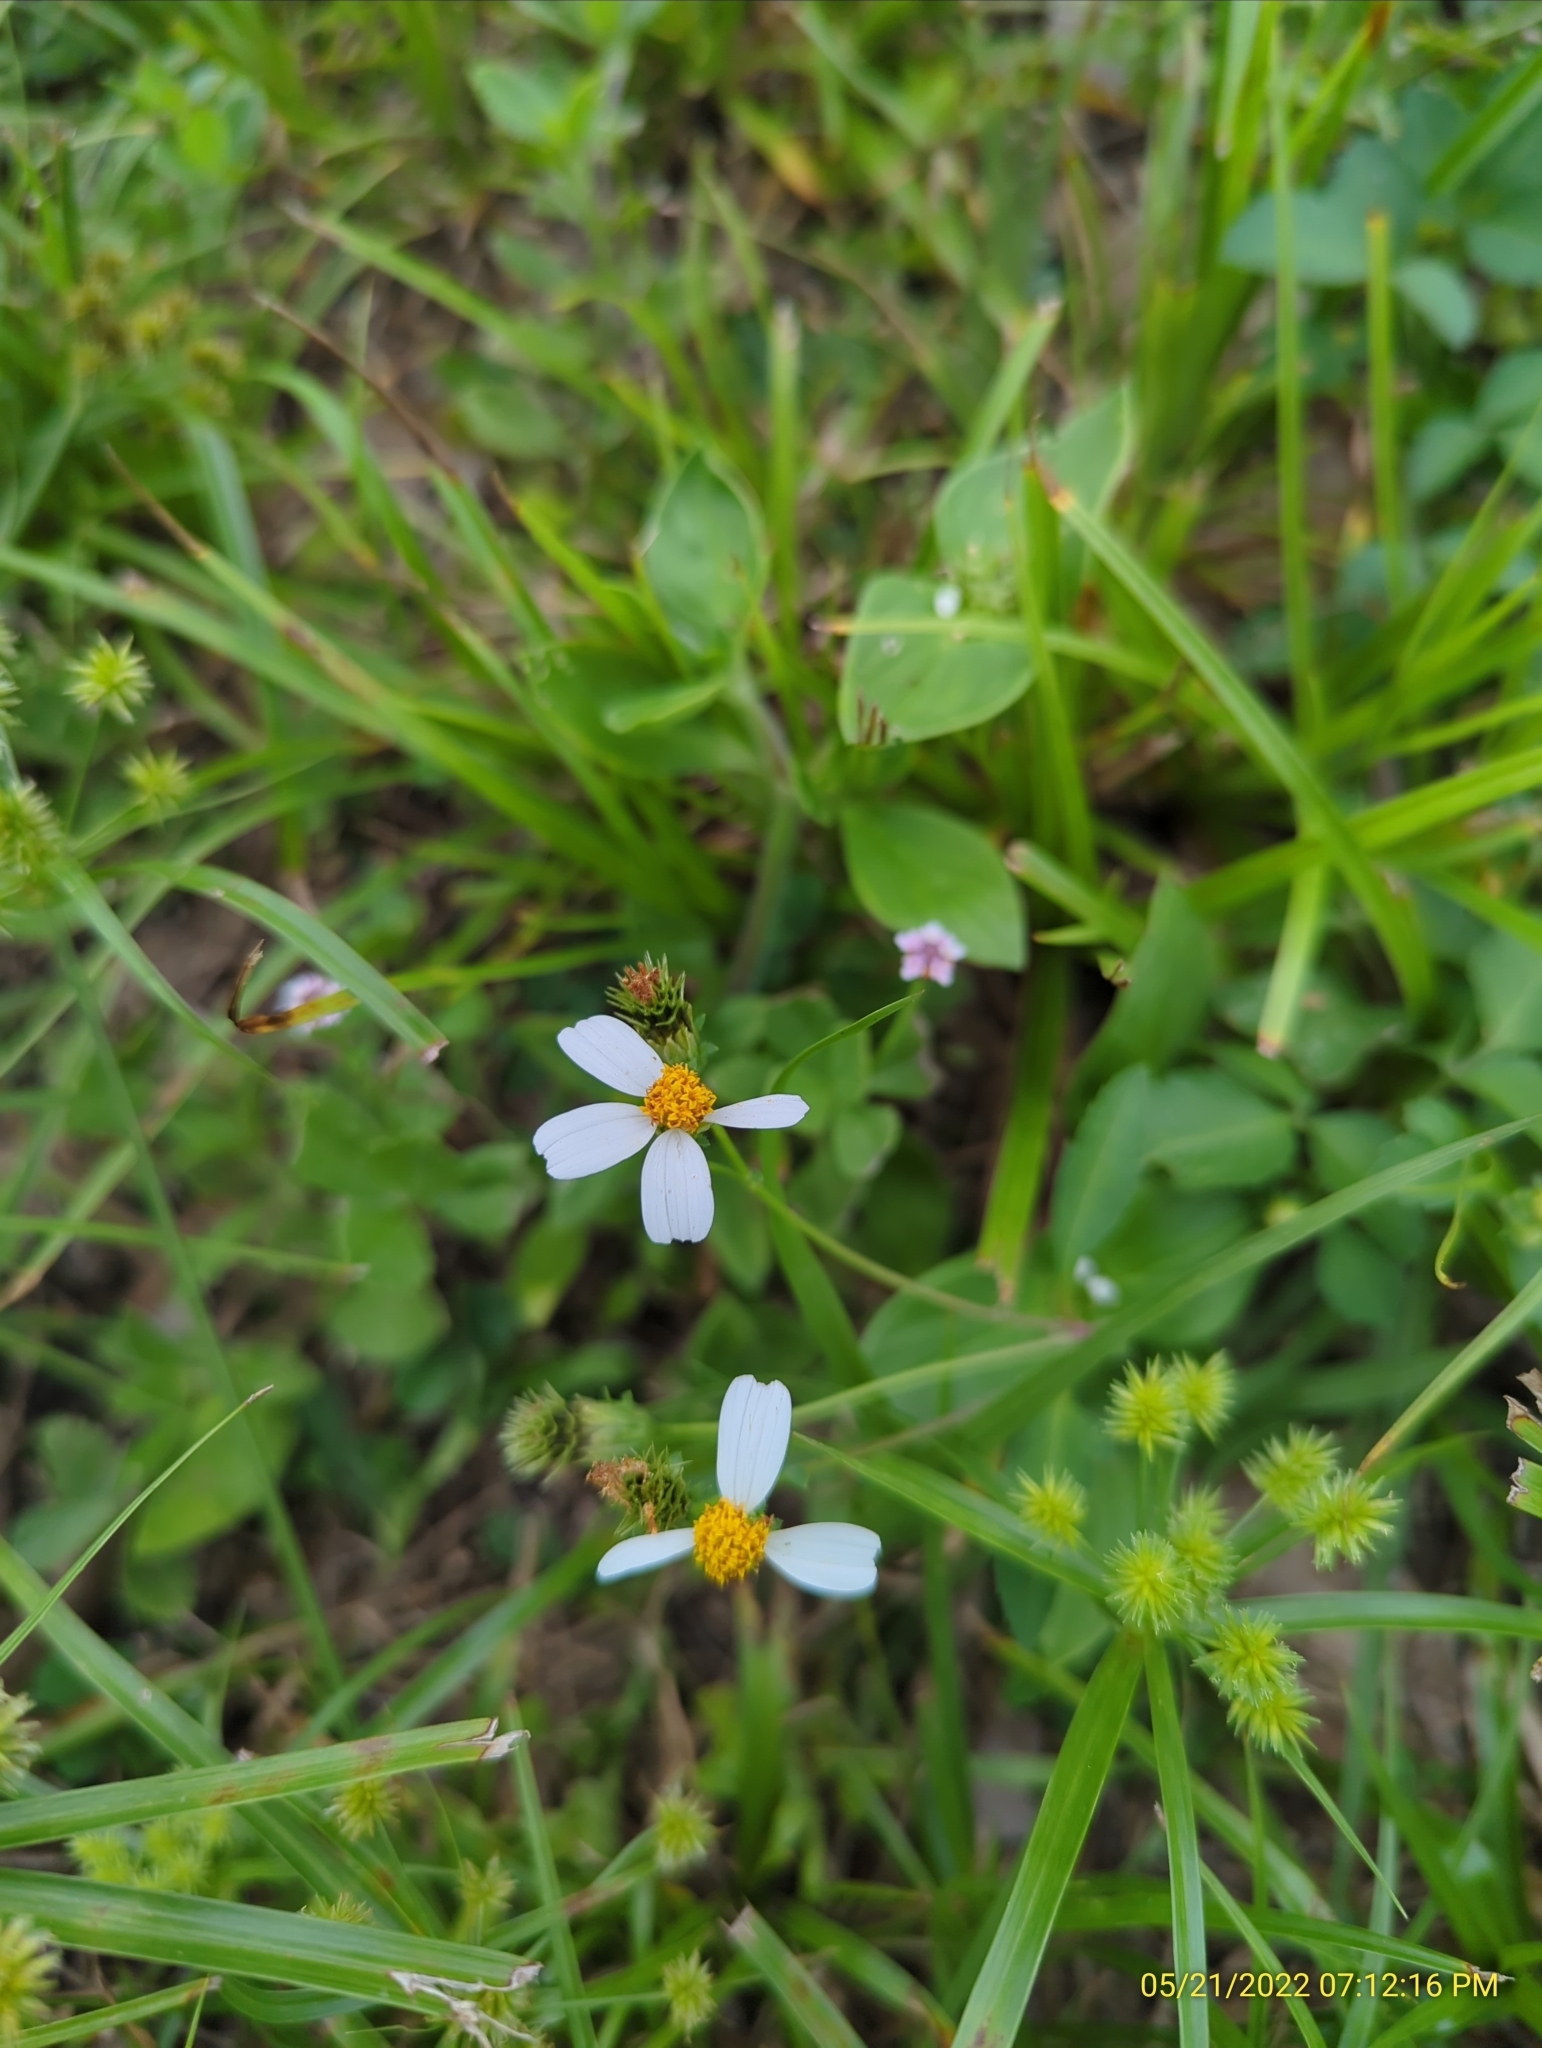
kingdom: Plantae
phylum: Tracheophyta
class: Magnoliopsida
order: Asterales
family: Asteraceae
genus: Bidens
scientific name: Bidens alba
